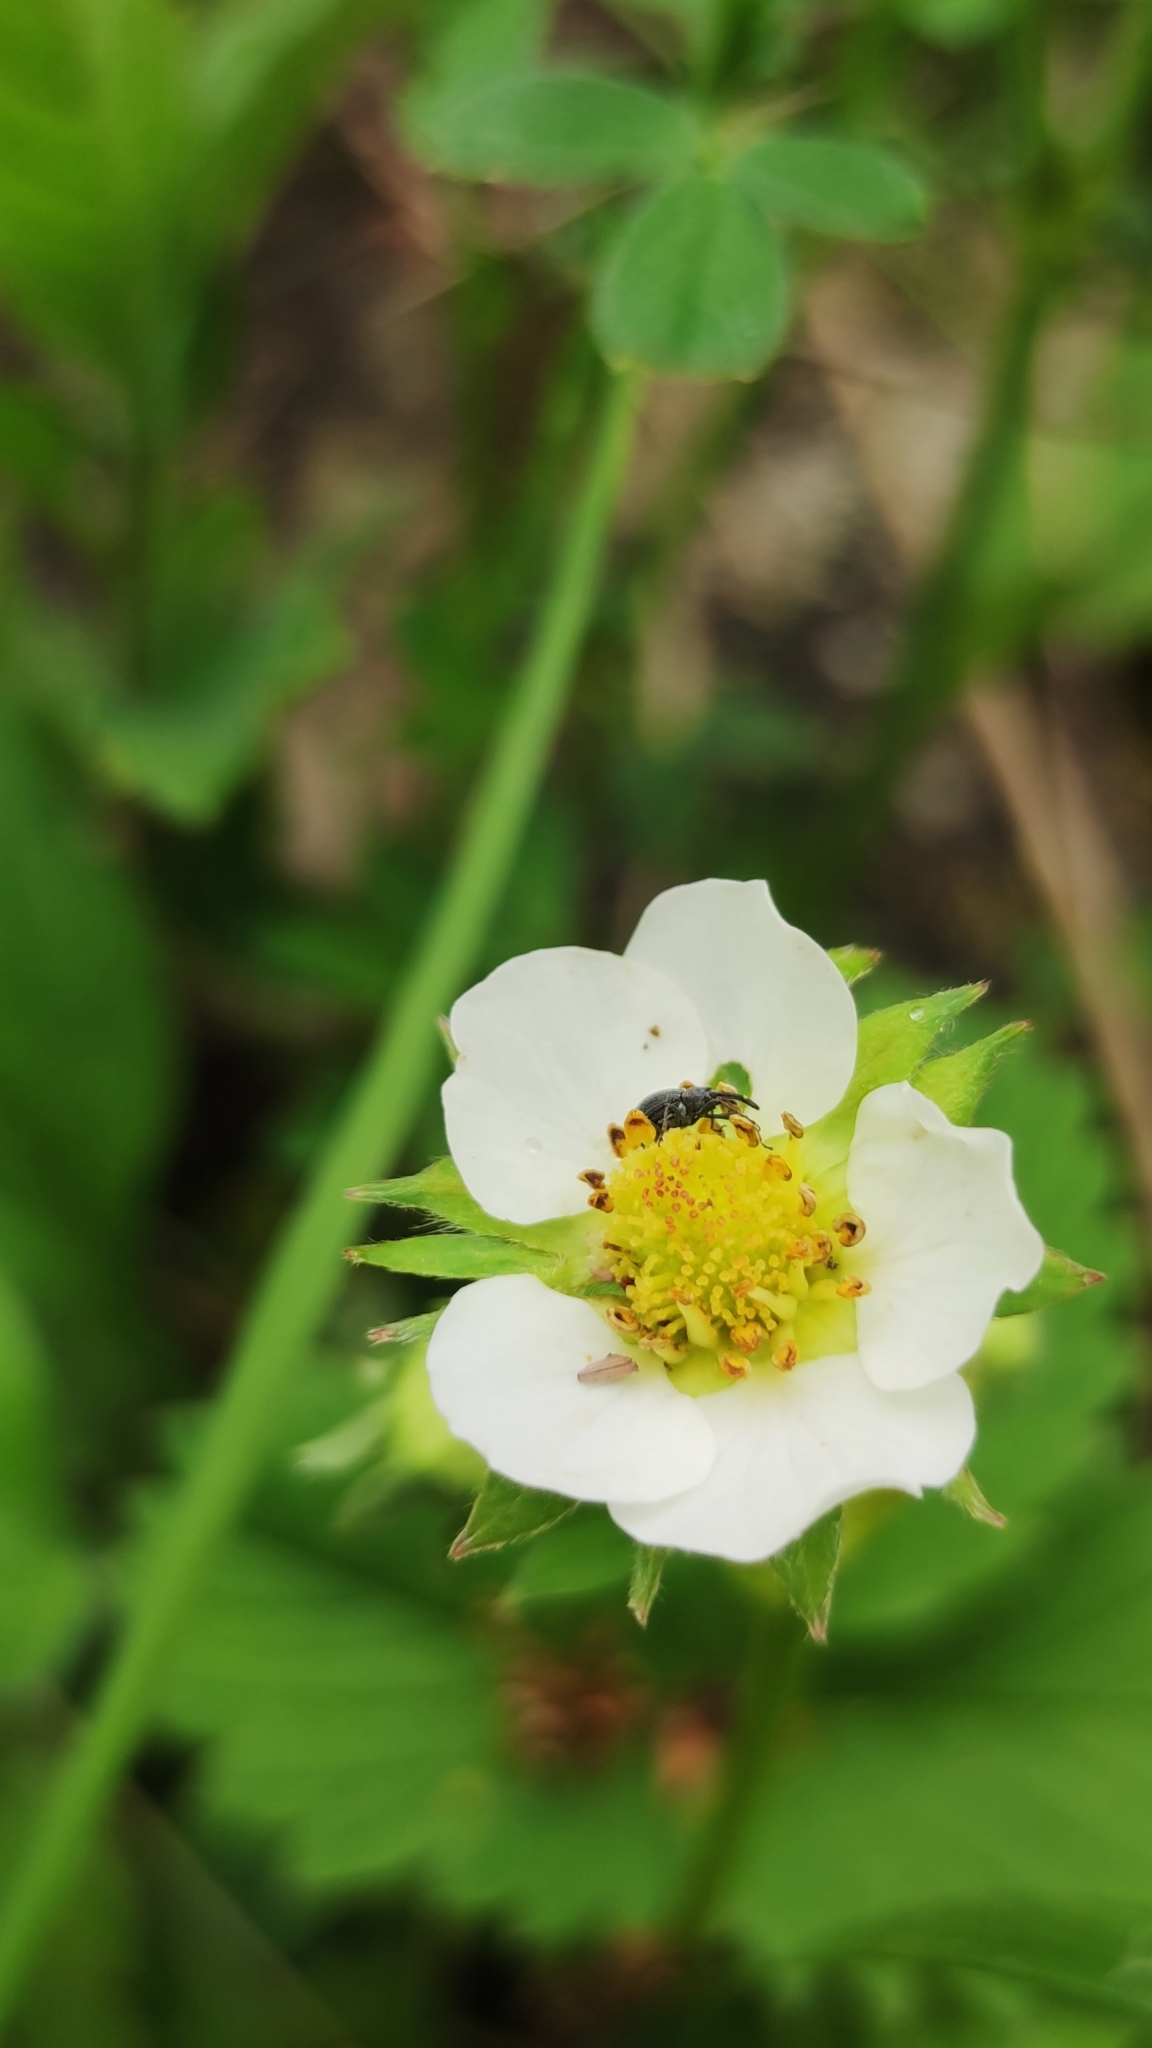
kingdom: Animalia
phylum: Arthropoda
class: Insecta
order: Coleoptera
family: Curculionidae
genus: Anthonomus
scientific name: Anthonomus rubi
